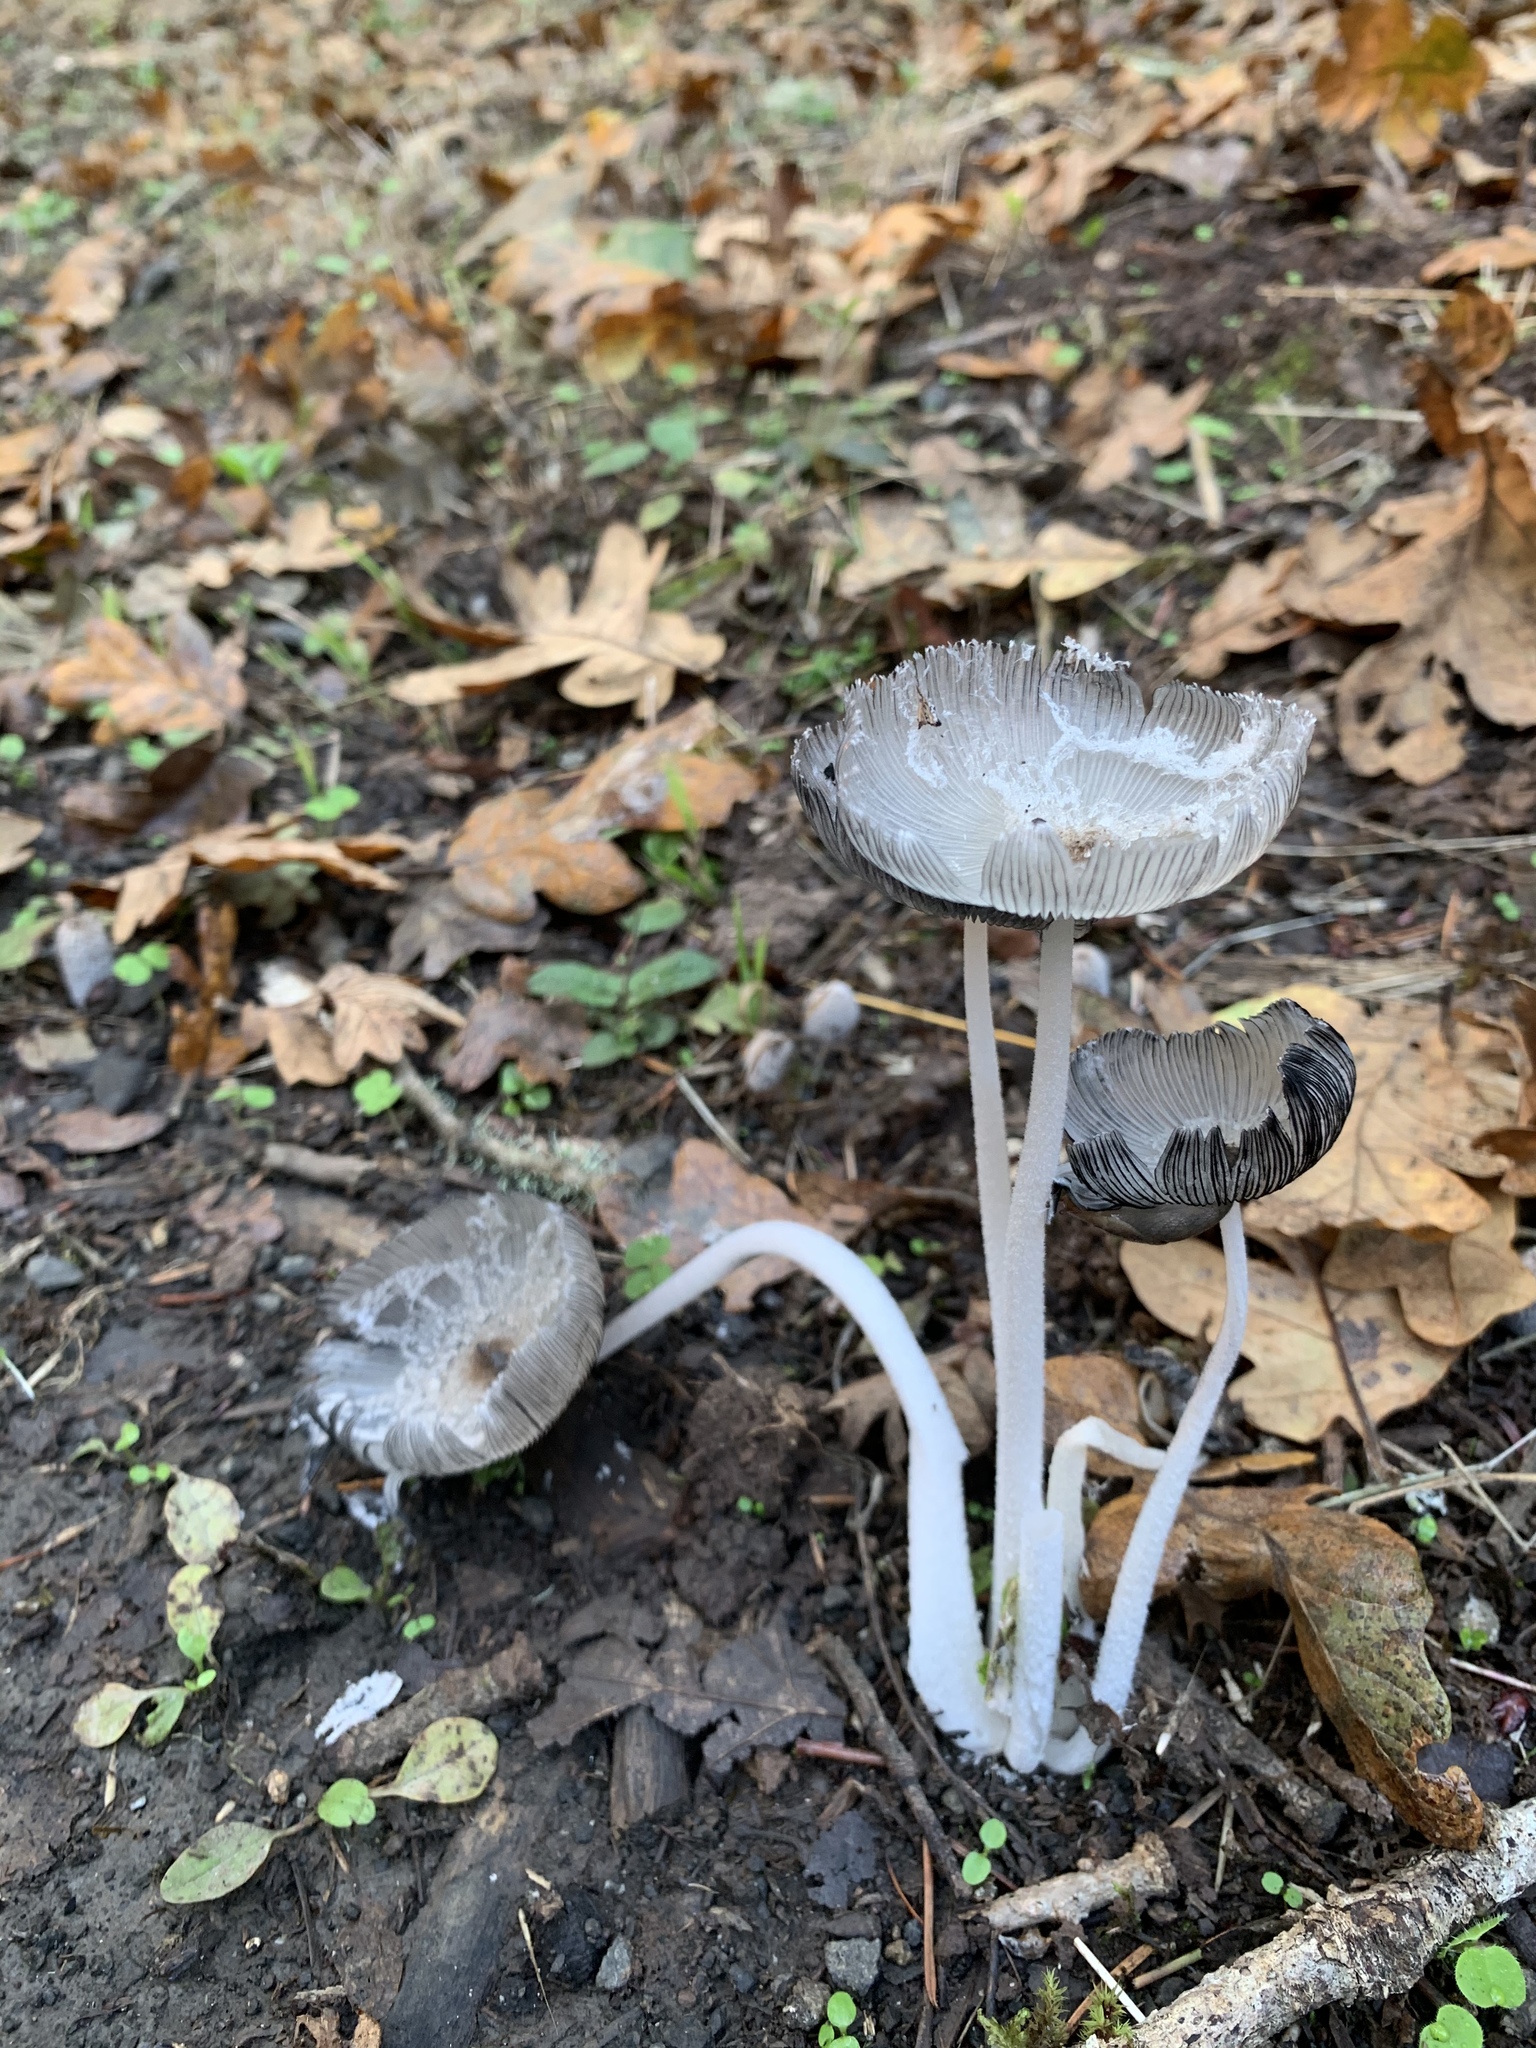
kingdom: Fungi
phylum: Basidiomycota
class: Agaricomycetes
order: Agaricales
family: Psathyrellaceae
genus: Coprinopsis
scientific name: Coprinopsis lagopus
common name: Hare'sfoot inkcap
